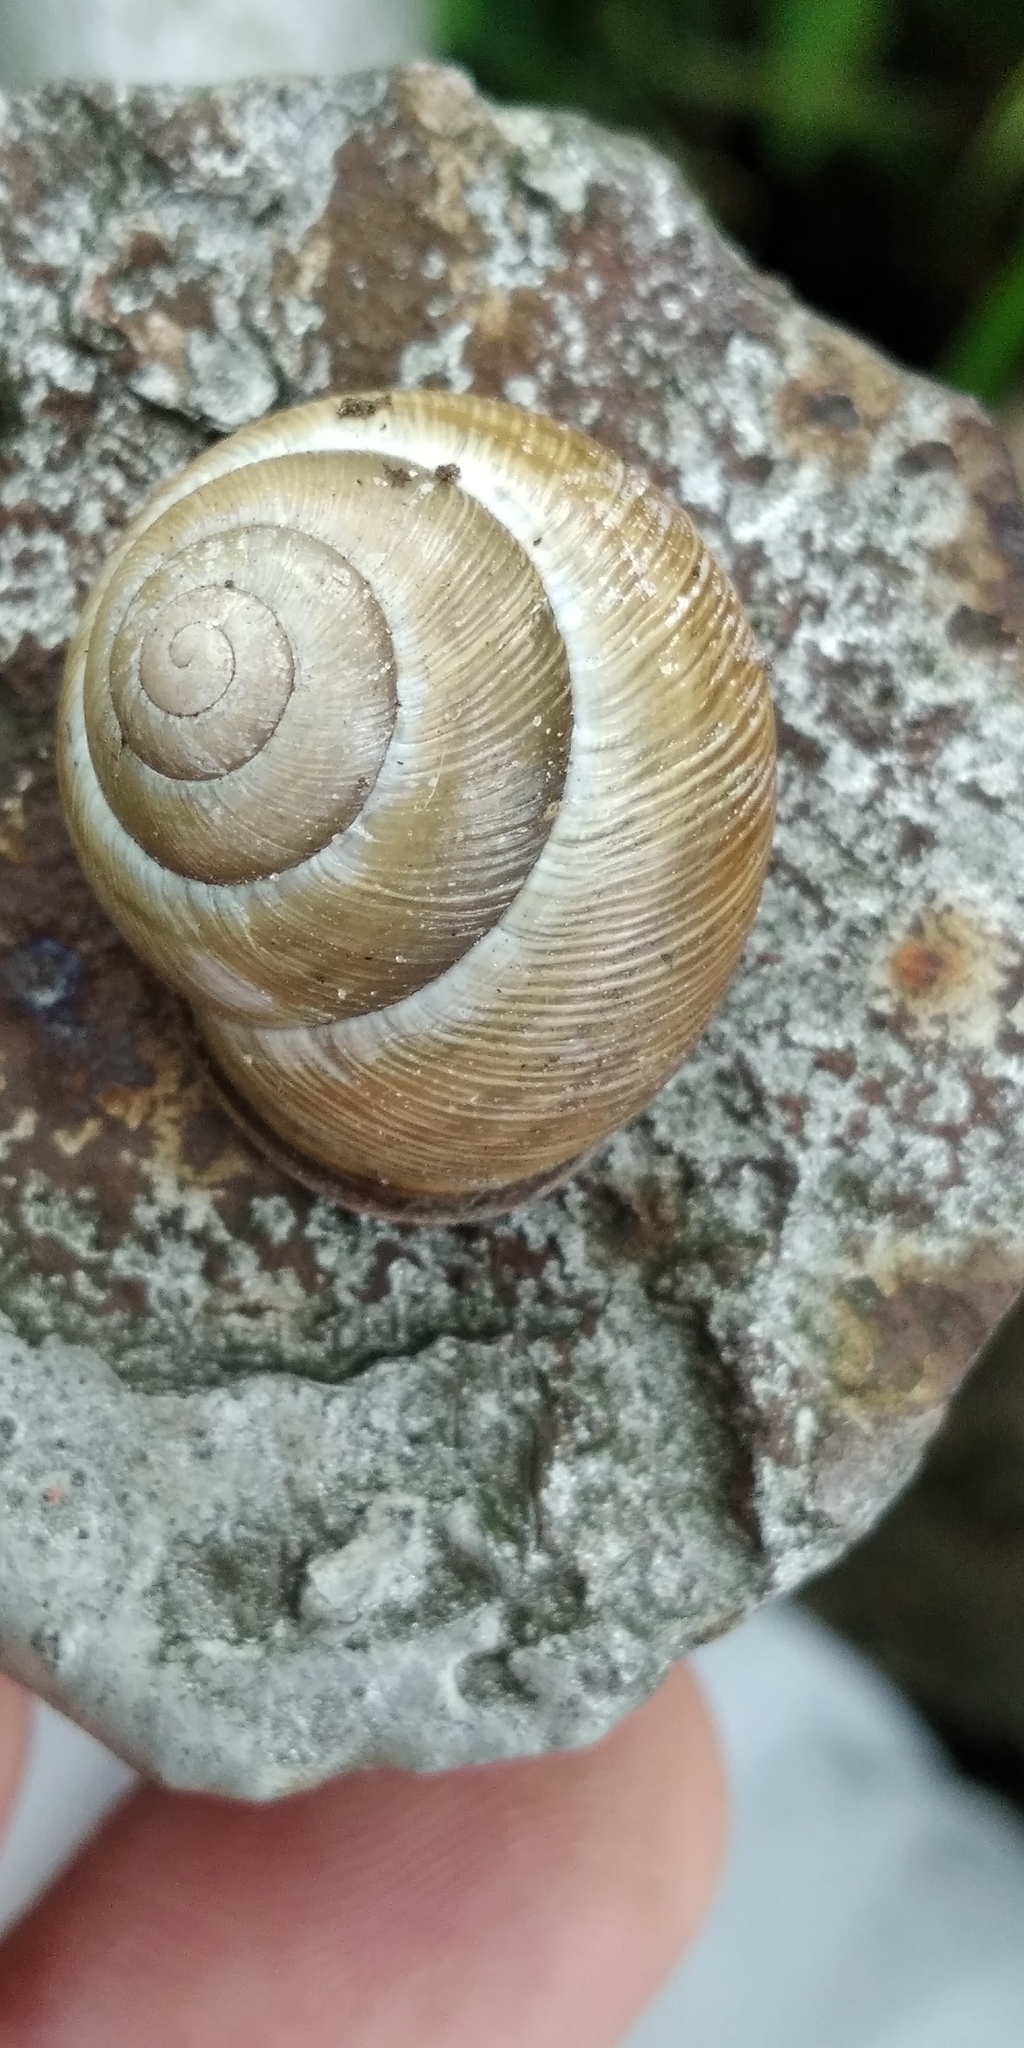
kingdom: Animalia
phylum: Mollusca
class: Gastropoda
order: Stylommatophora
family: Helicidae
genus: Caucasotachea
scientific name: Caucasotachea vindobonensis
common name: European helicid land snail
